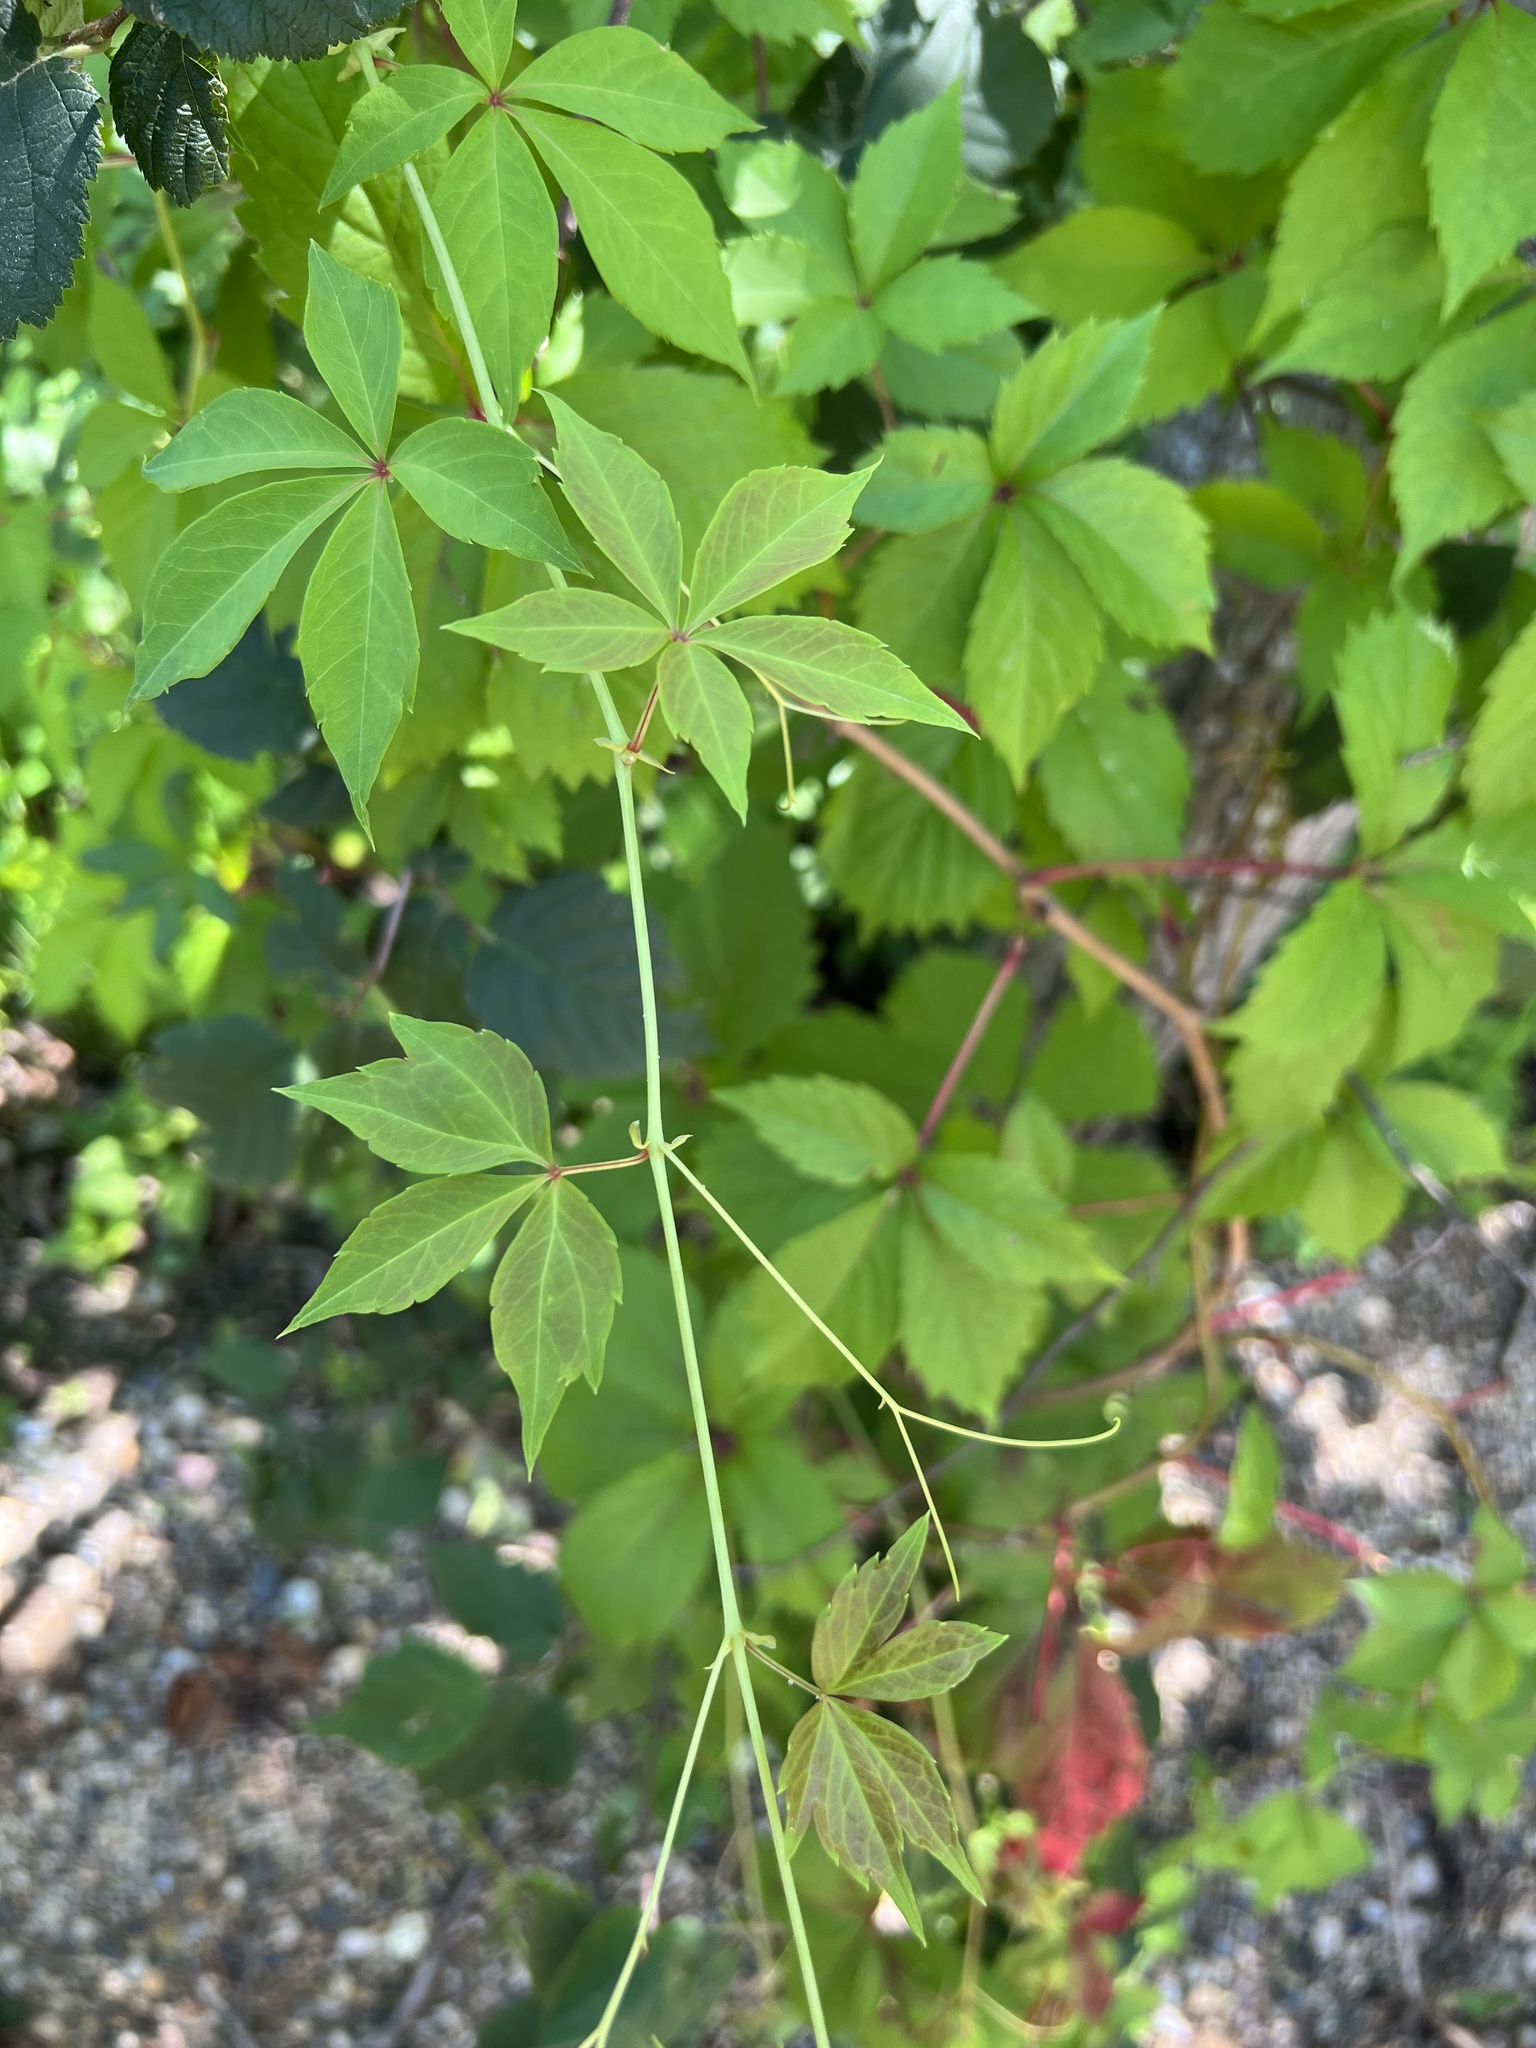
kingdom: Plantae
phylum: Tracheophyta
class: Magnoliopsida
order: Vitales
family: Vitaceae
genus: Parthenocissus
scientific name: Parthenocissus quinquefolia
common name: Virginia-creeper
